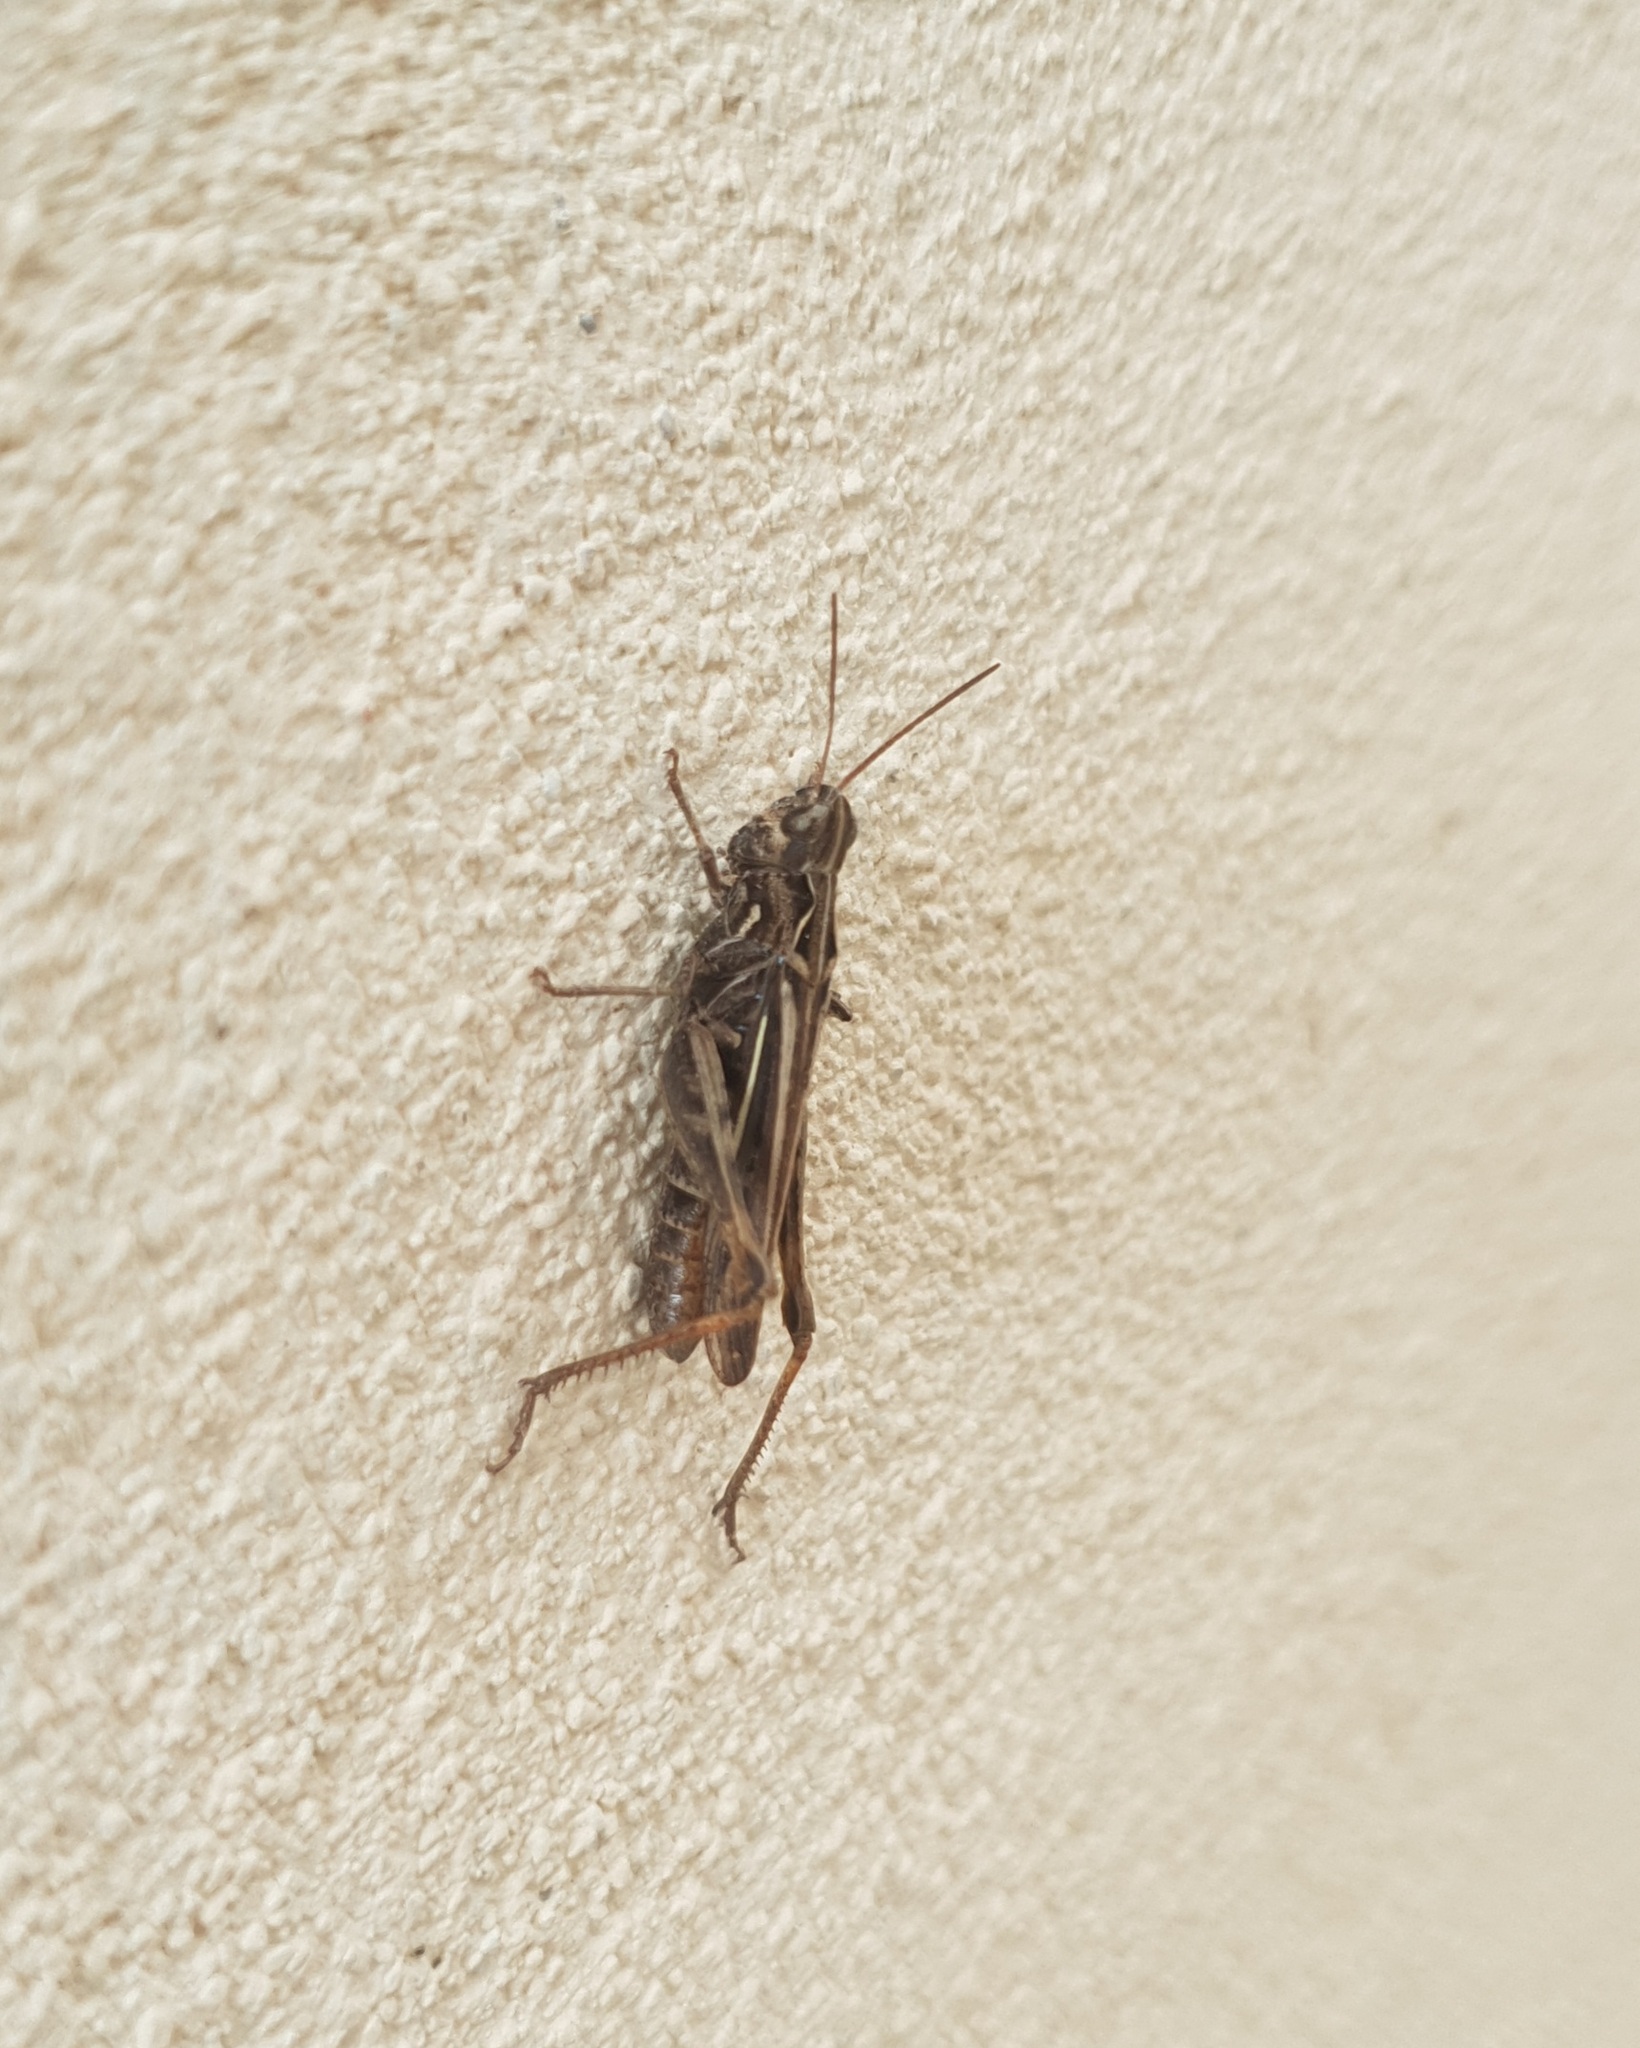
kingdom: Animalia
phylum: Arthropoda
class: Insecta
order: Orthoptera
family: Acrididae
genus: Glyptobothrus
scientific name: Glyptobothrus
